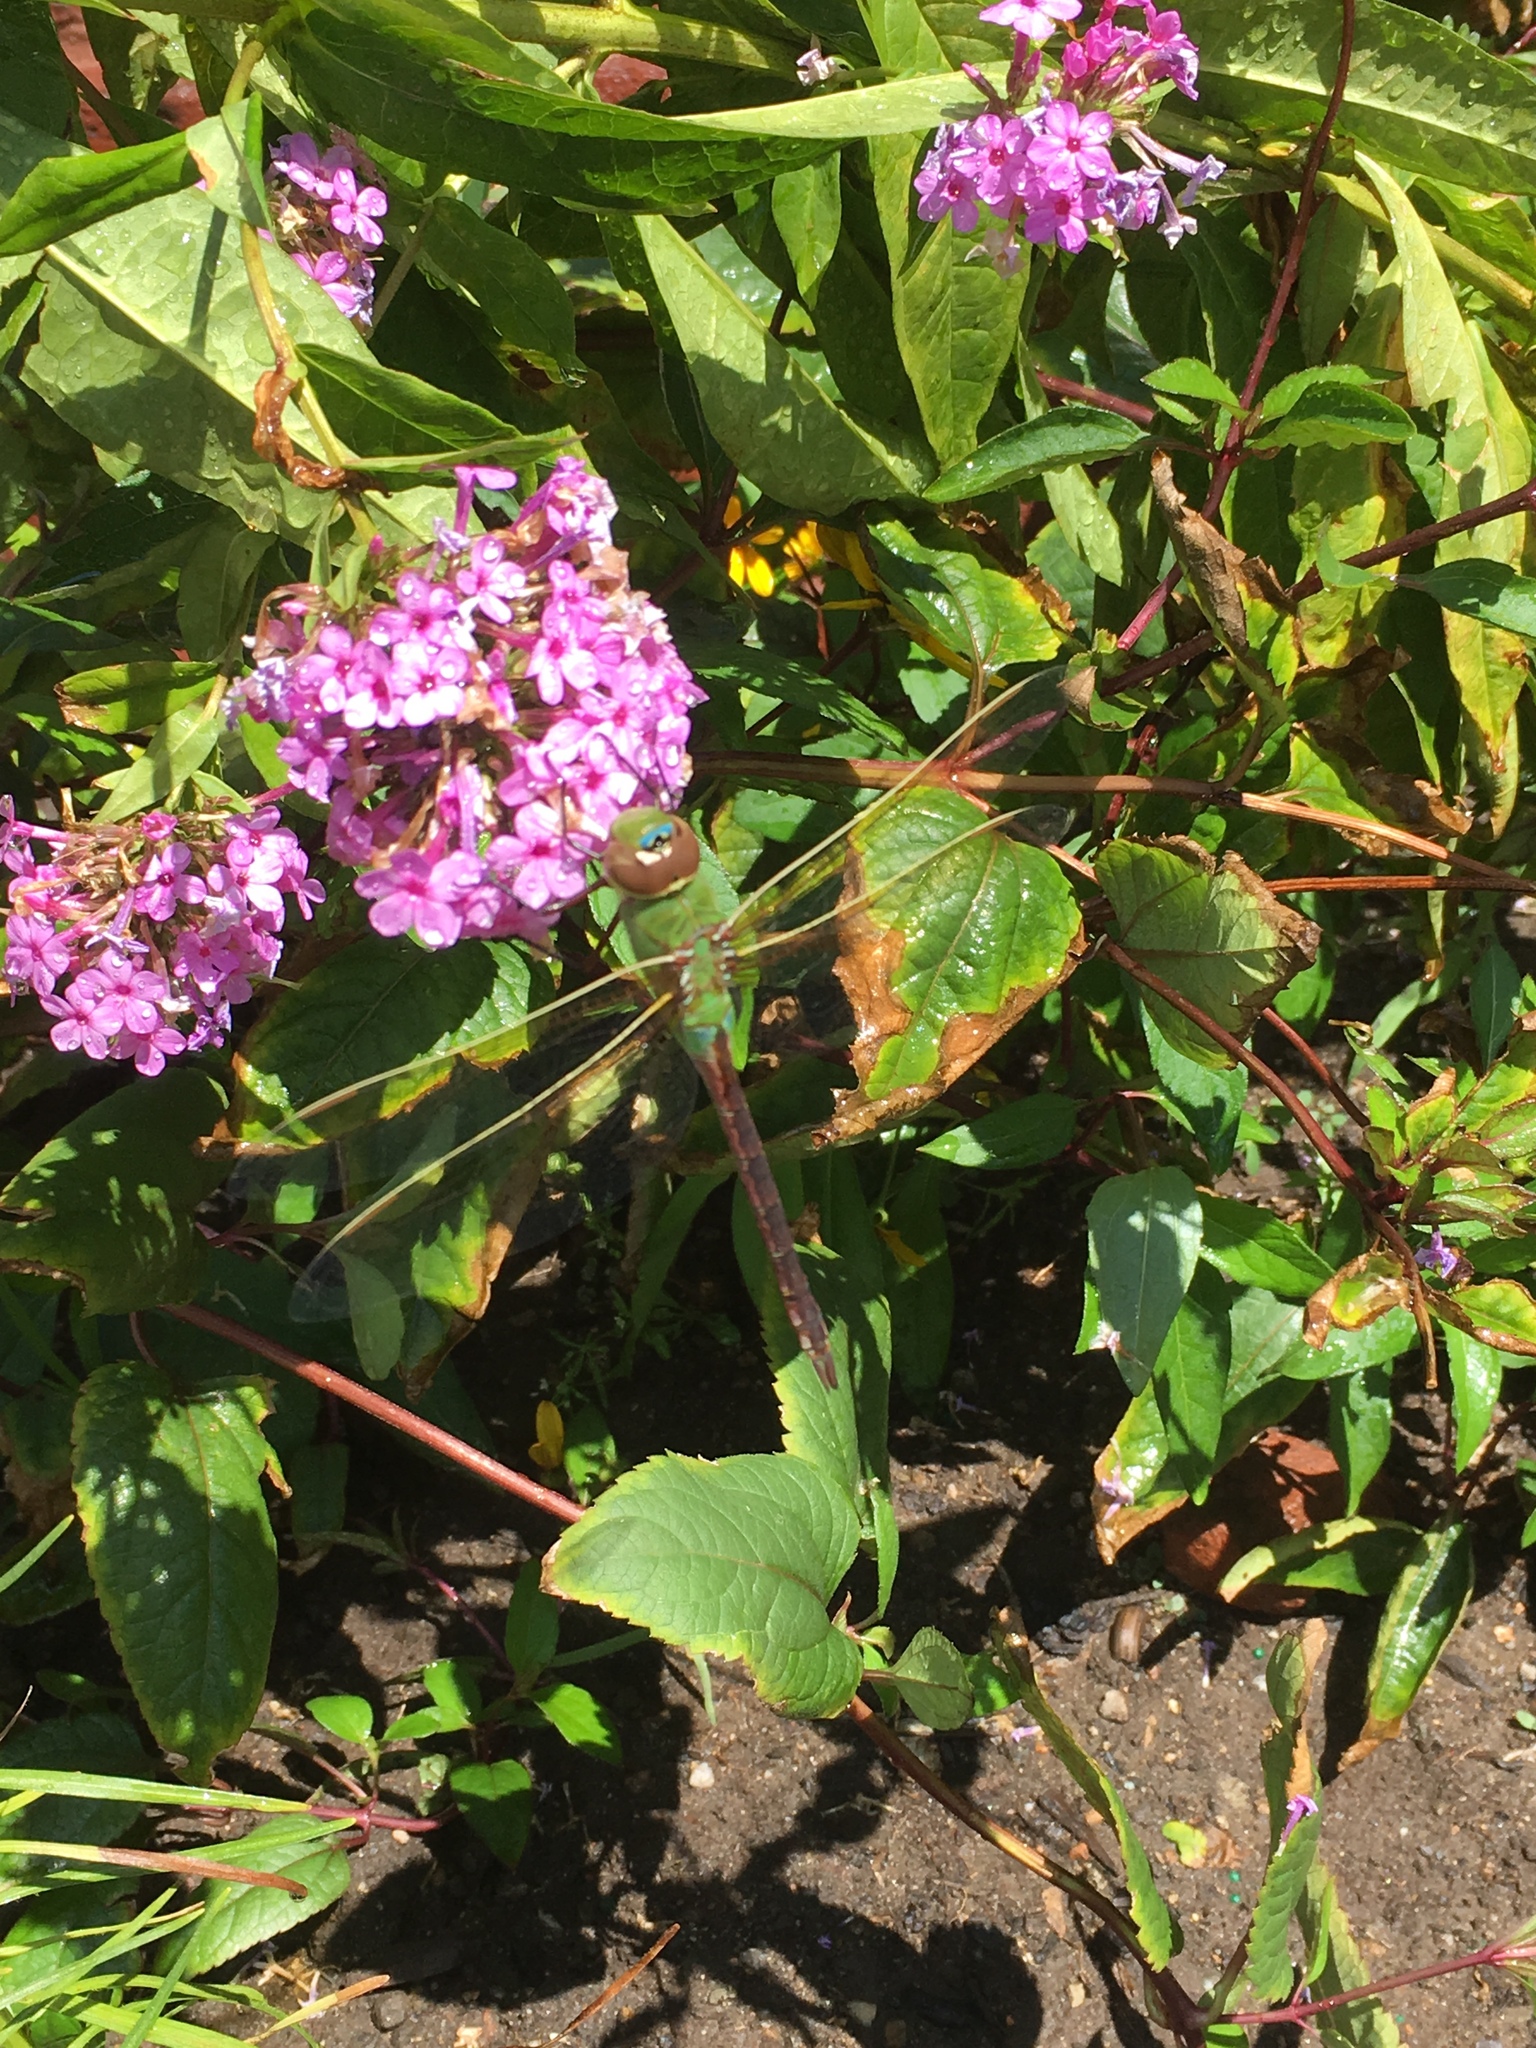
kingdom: Animalia
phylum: Arthropoda
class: Insecta
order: Odonata
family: Aeshnidae
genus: Anax
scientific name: Anax junius
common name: Common green darner
